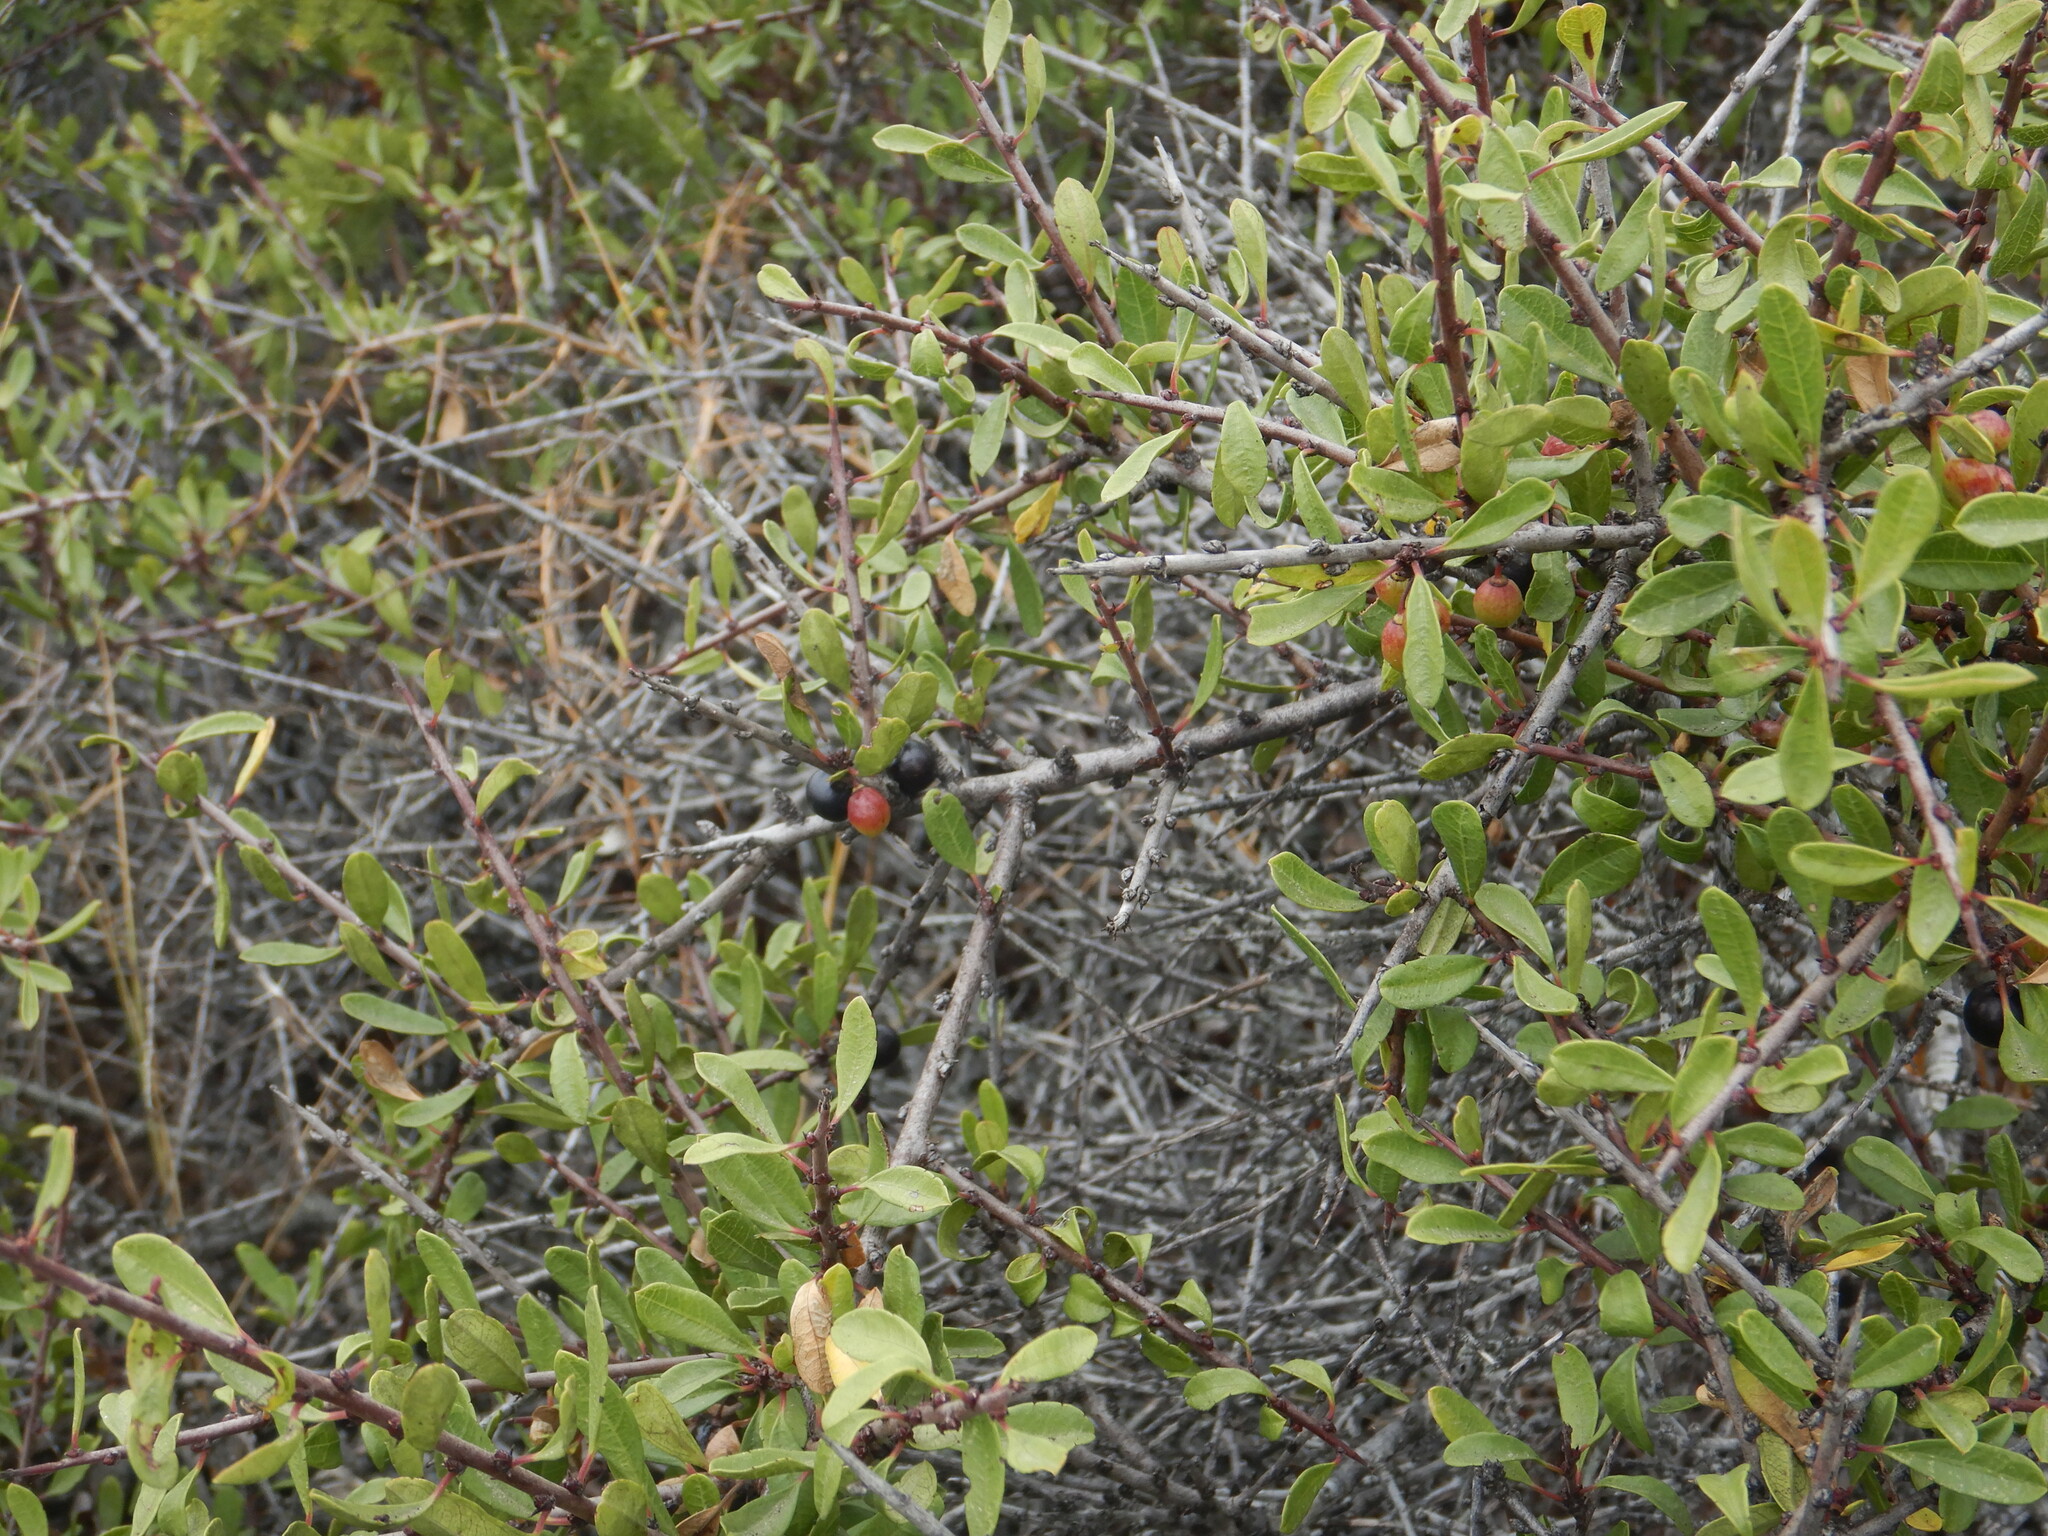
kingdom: Plantae
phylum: Tracheophyta
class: Magnoliopsida
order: Rosales
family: Rhamnaceae
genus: Rhamnus
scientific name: Rhamnus oleoides
